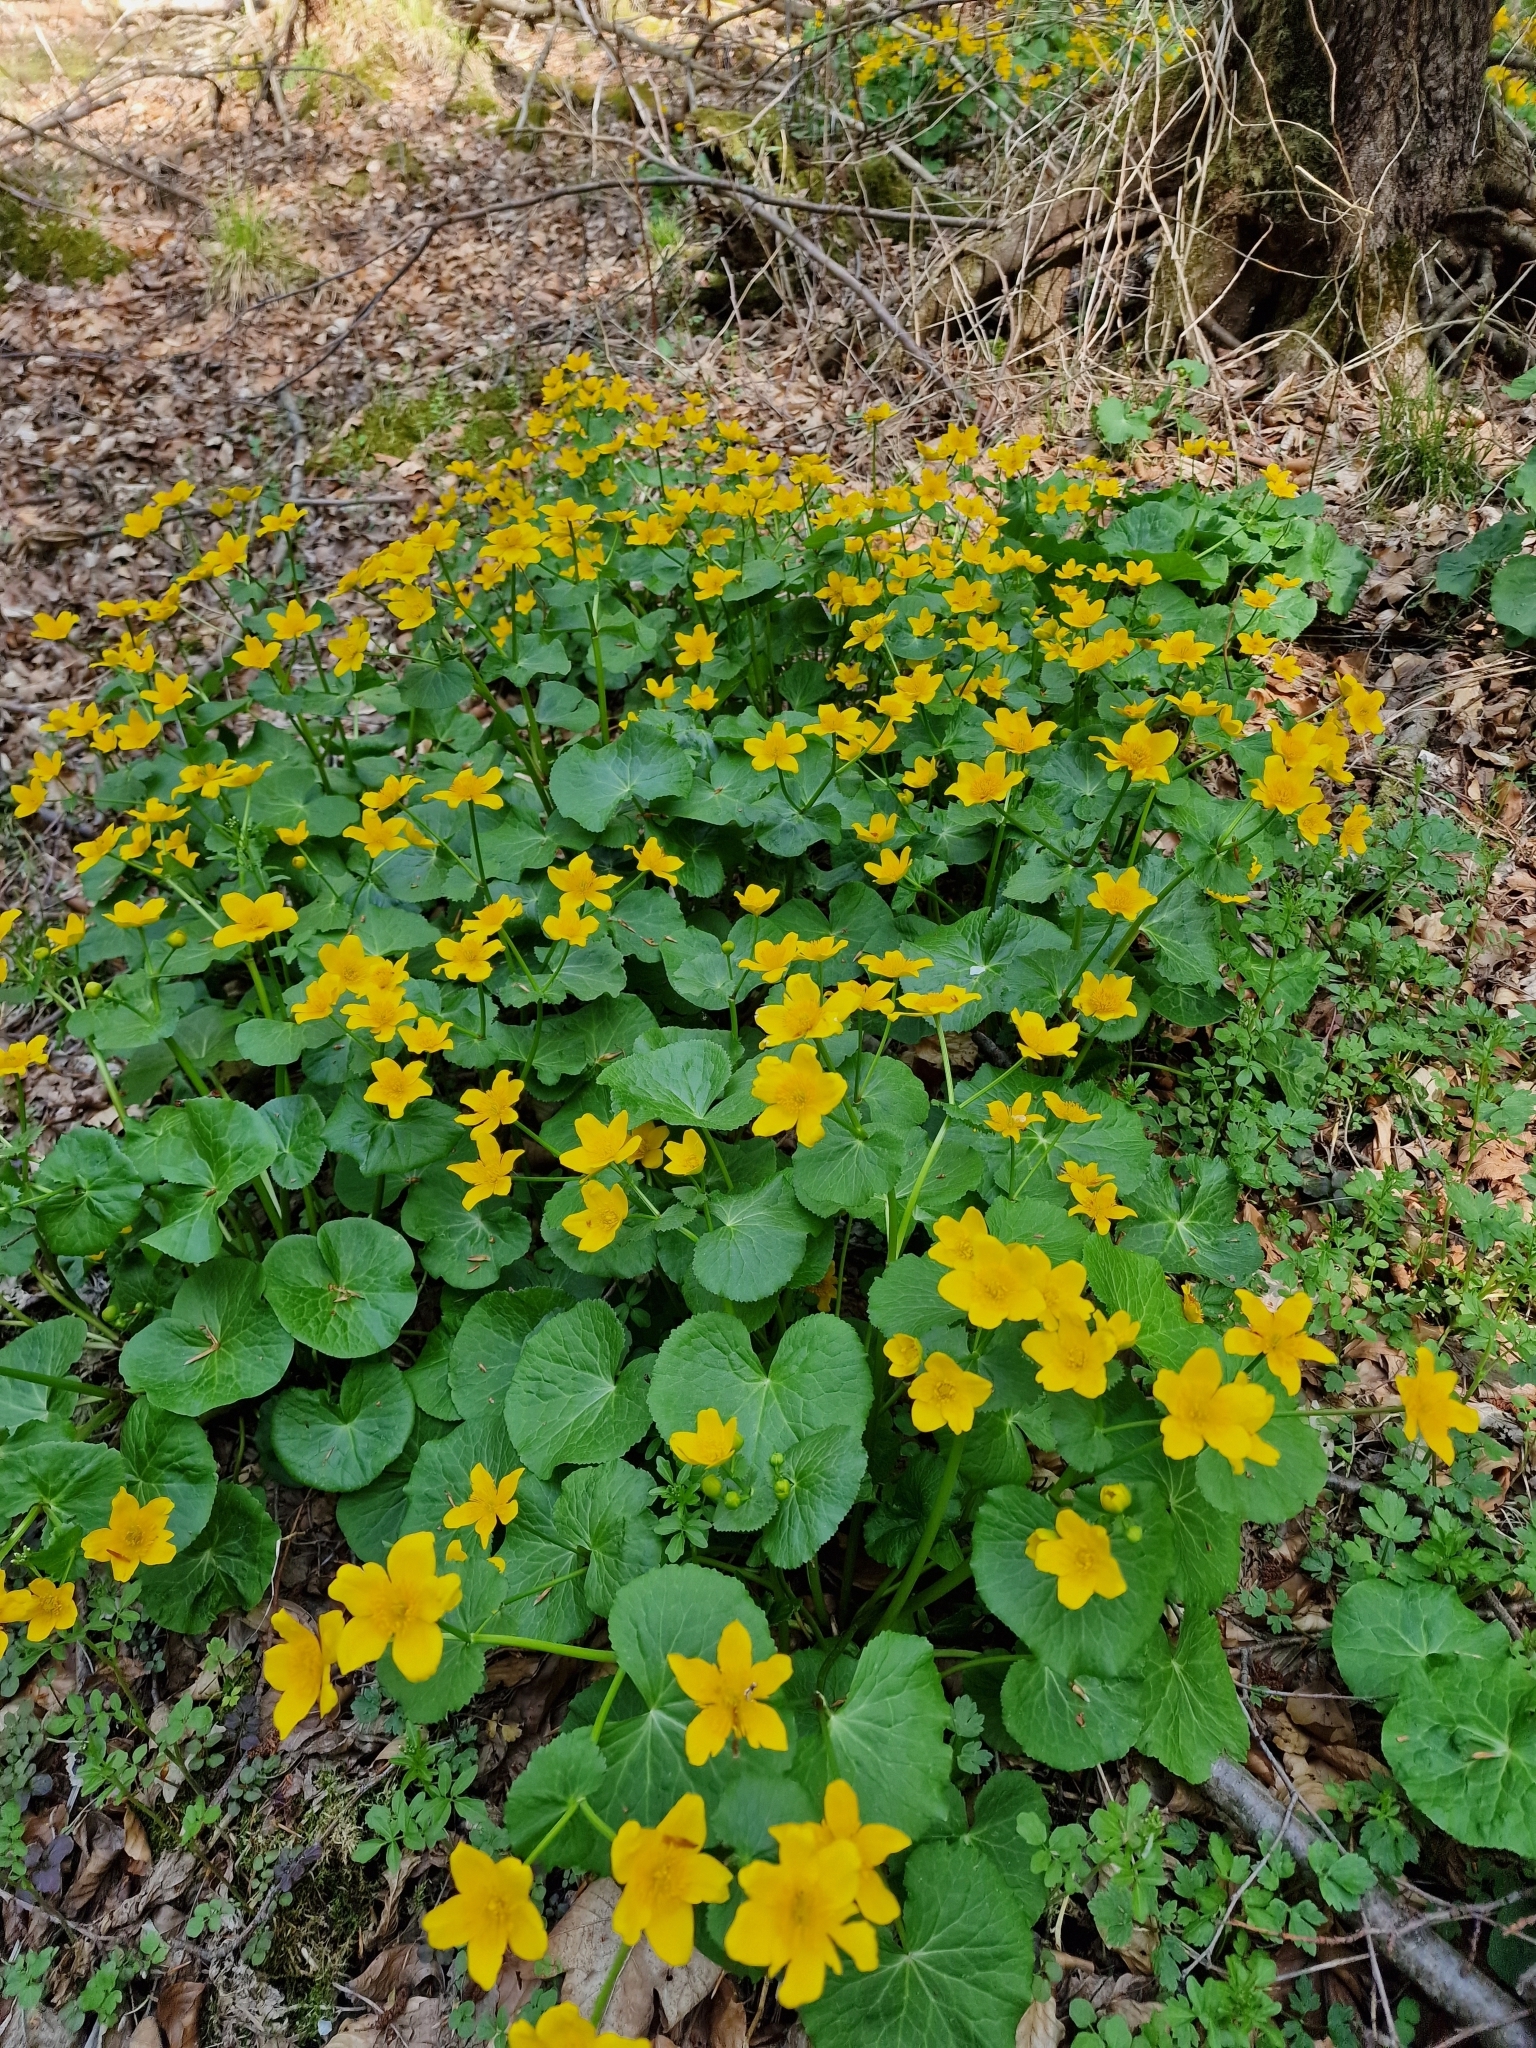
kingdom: Plantae
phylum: Tracheophyta
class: Magnoliopsida
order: Ranunculales
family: Ranunculaceae
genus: Caltha
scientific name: Caltha palustris
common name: Marsh marigold
